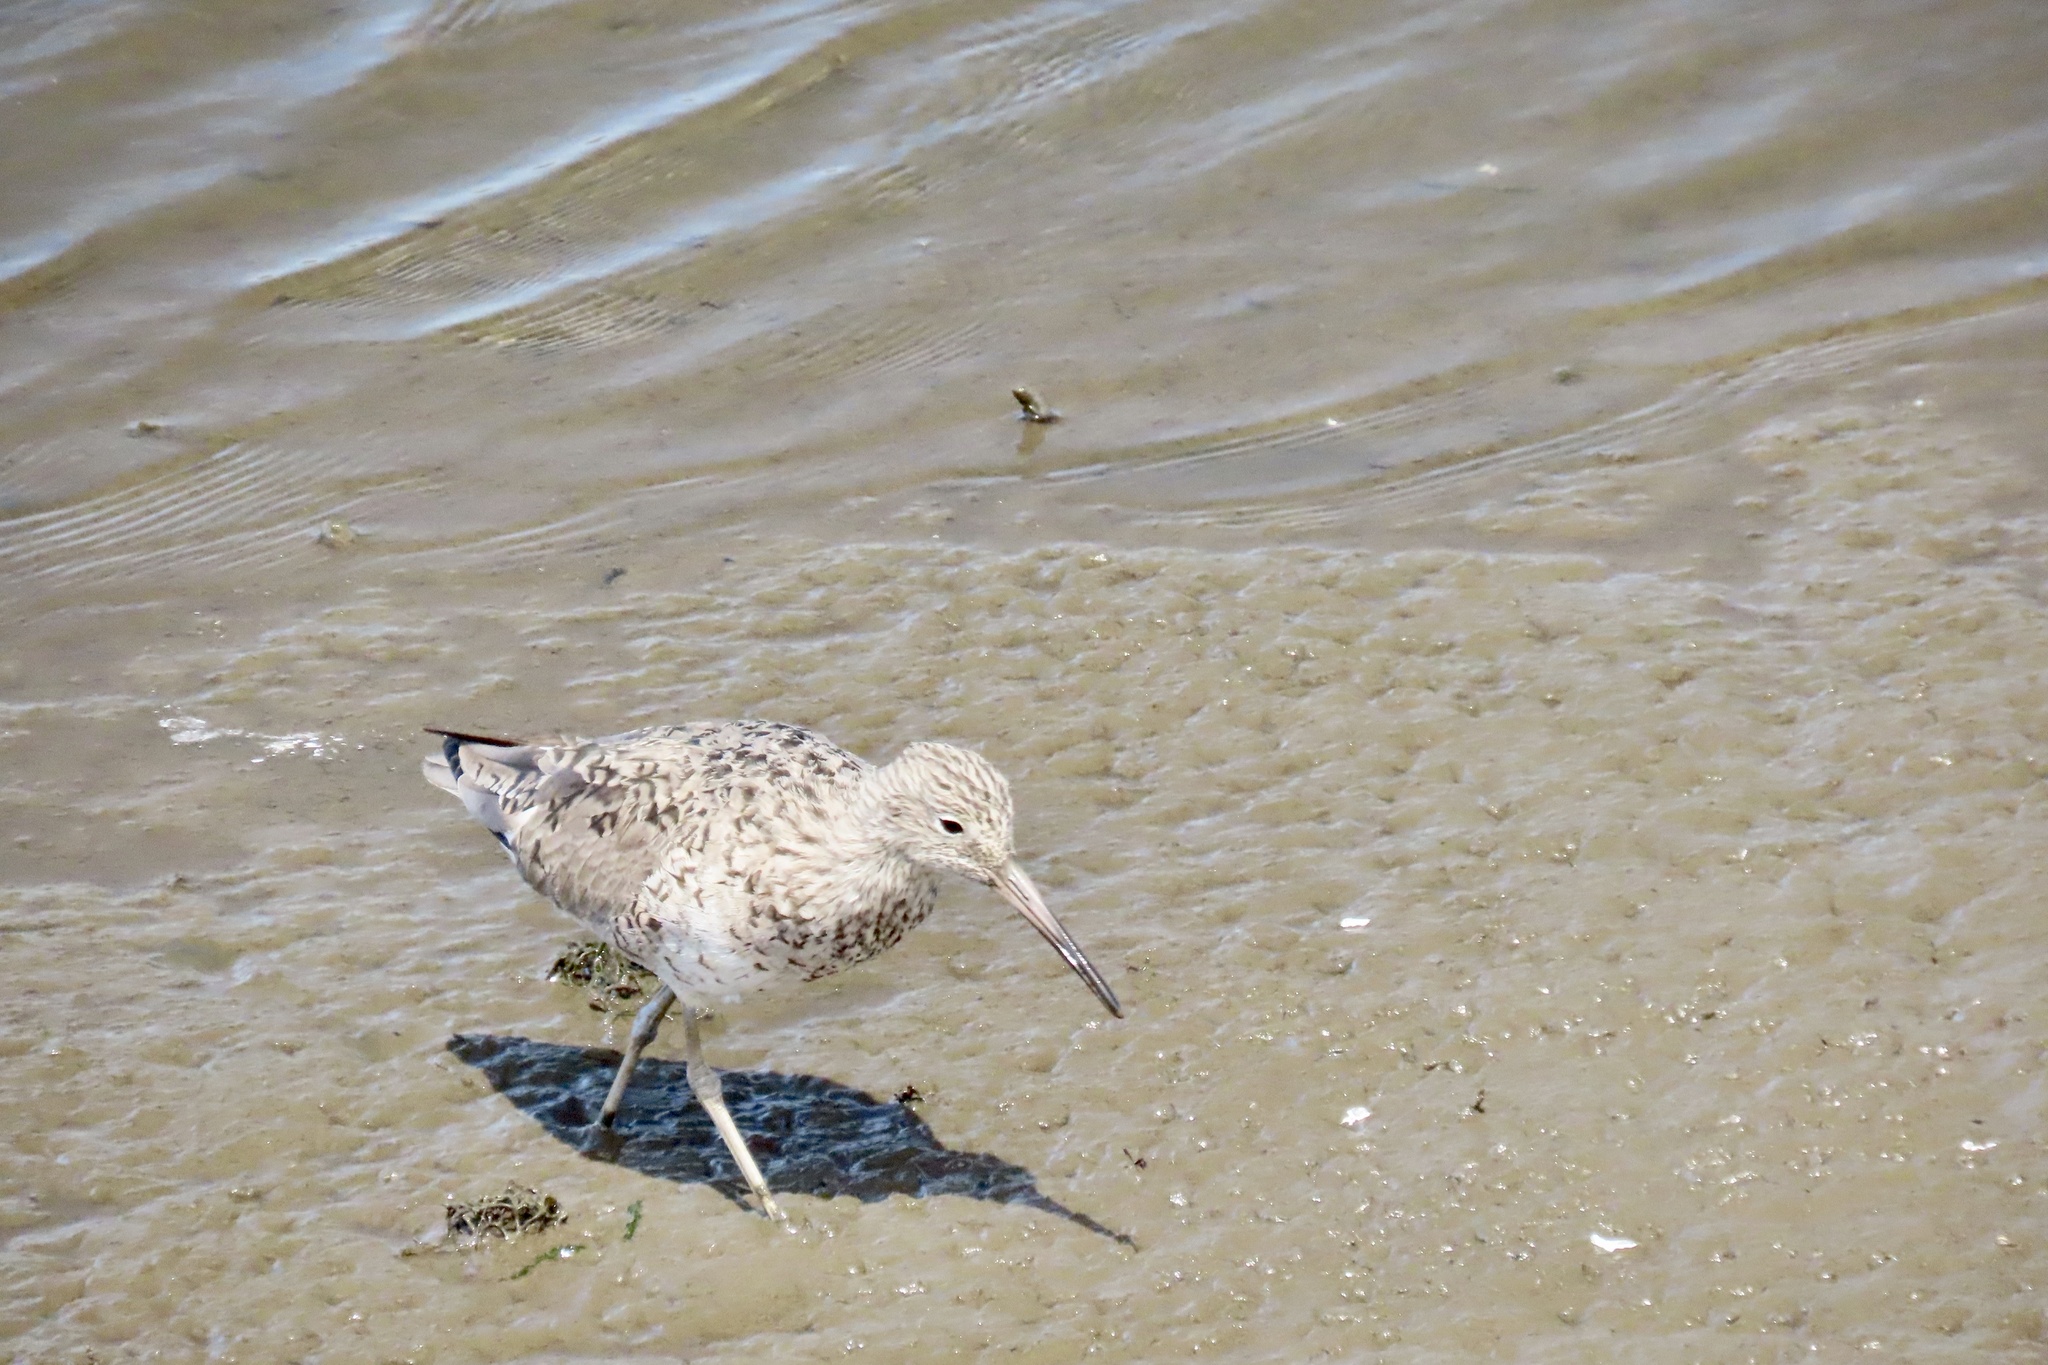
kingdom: Animalia
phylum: Chordata
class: Aves
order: Charadriiformes
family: Scolopacidae
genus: Tringa
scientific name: Tringa semipalmata
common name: Willet
